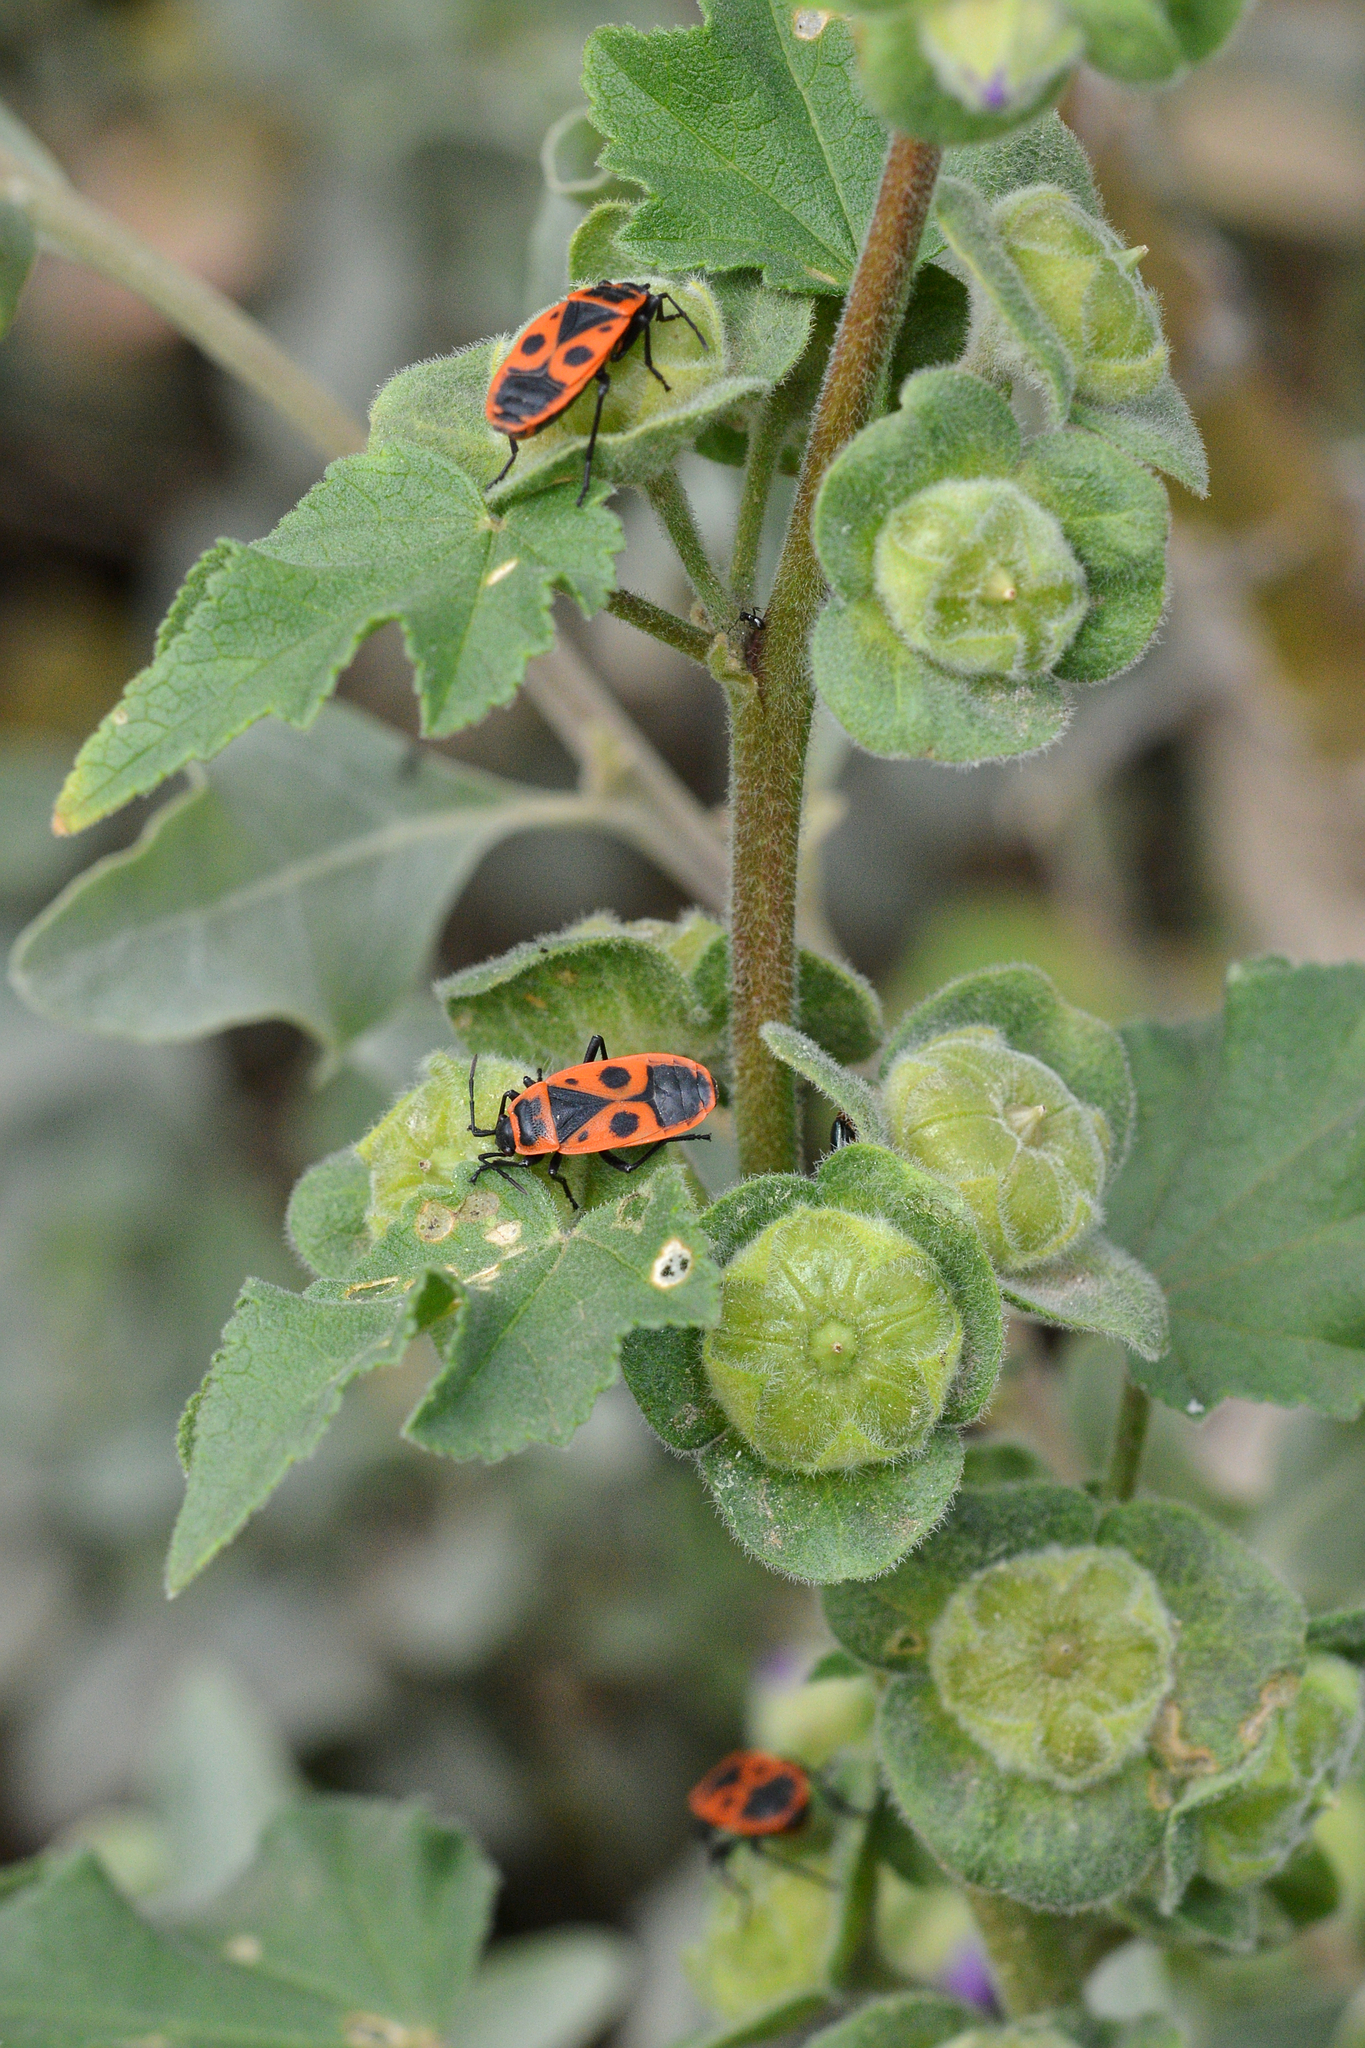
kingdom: Animalia
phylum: Arthropoda
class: Insecta
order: Hemiptera
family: Pyrrhocoridae
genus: Pyrrhocoris
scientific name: Pyrrhocoris apterus
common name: Firebug
